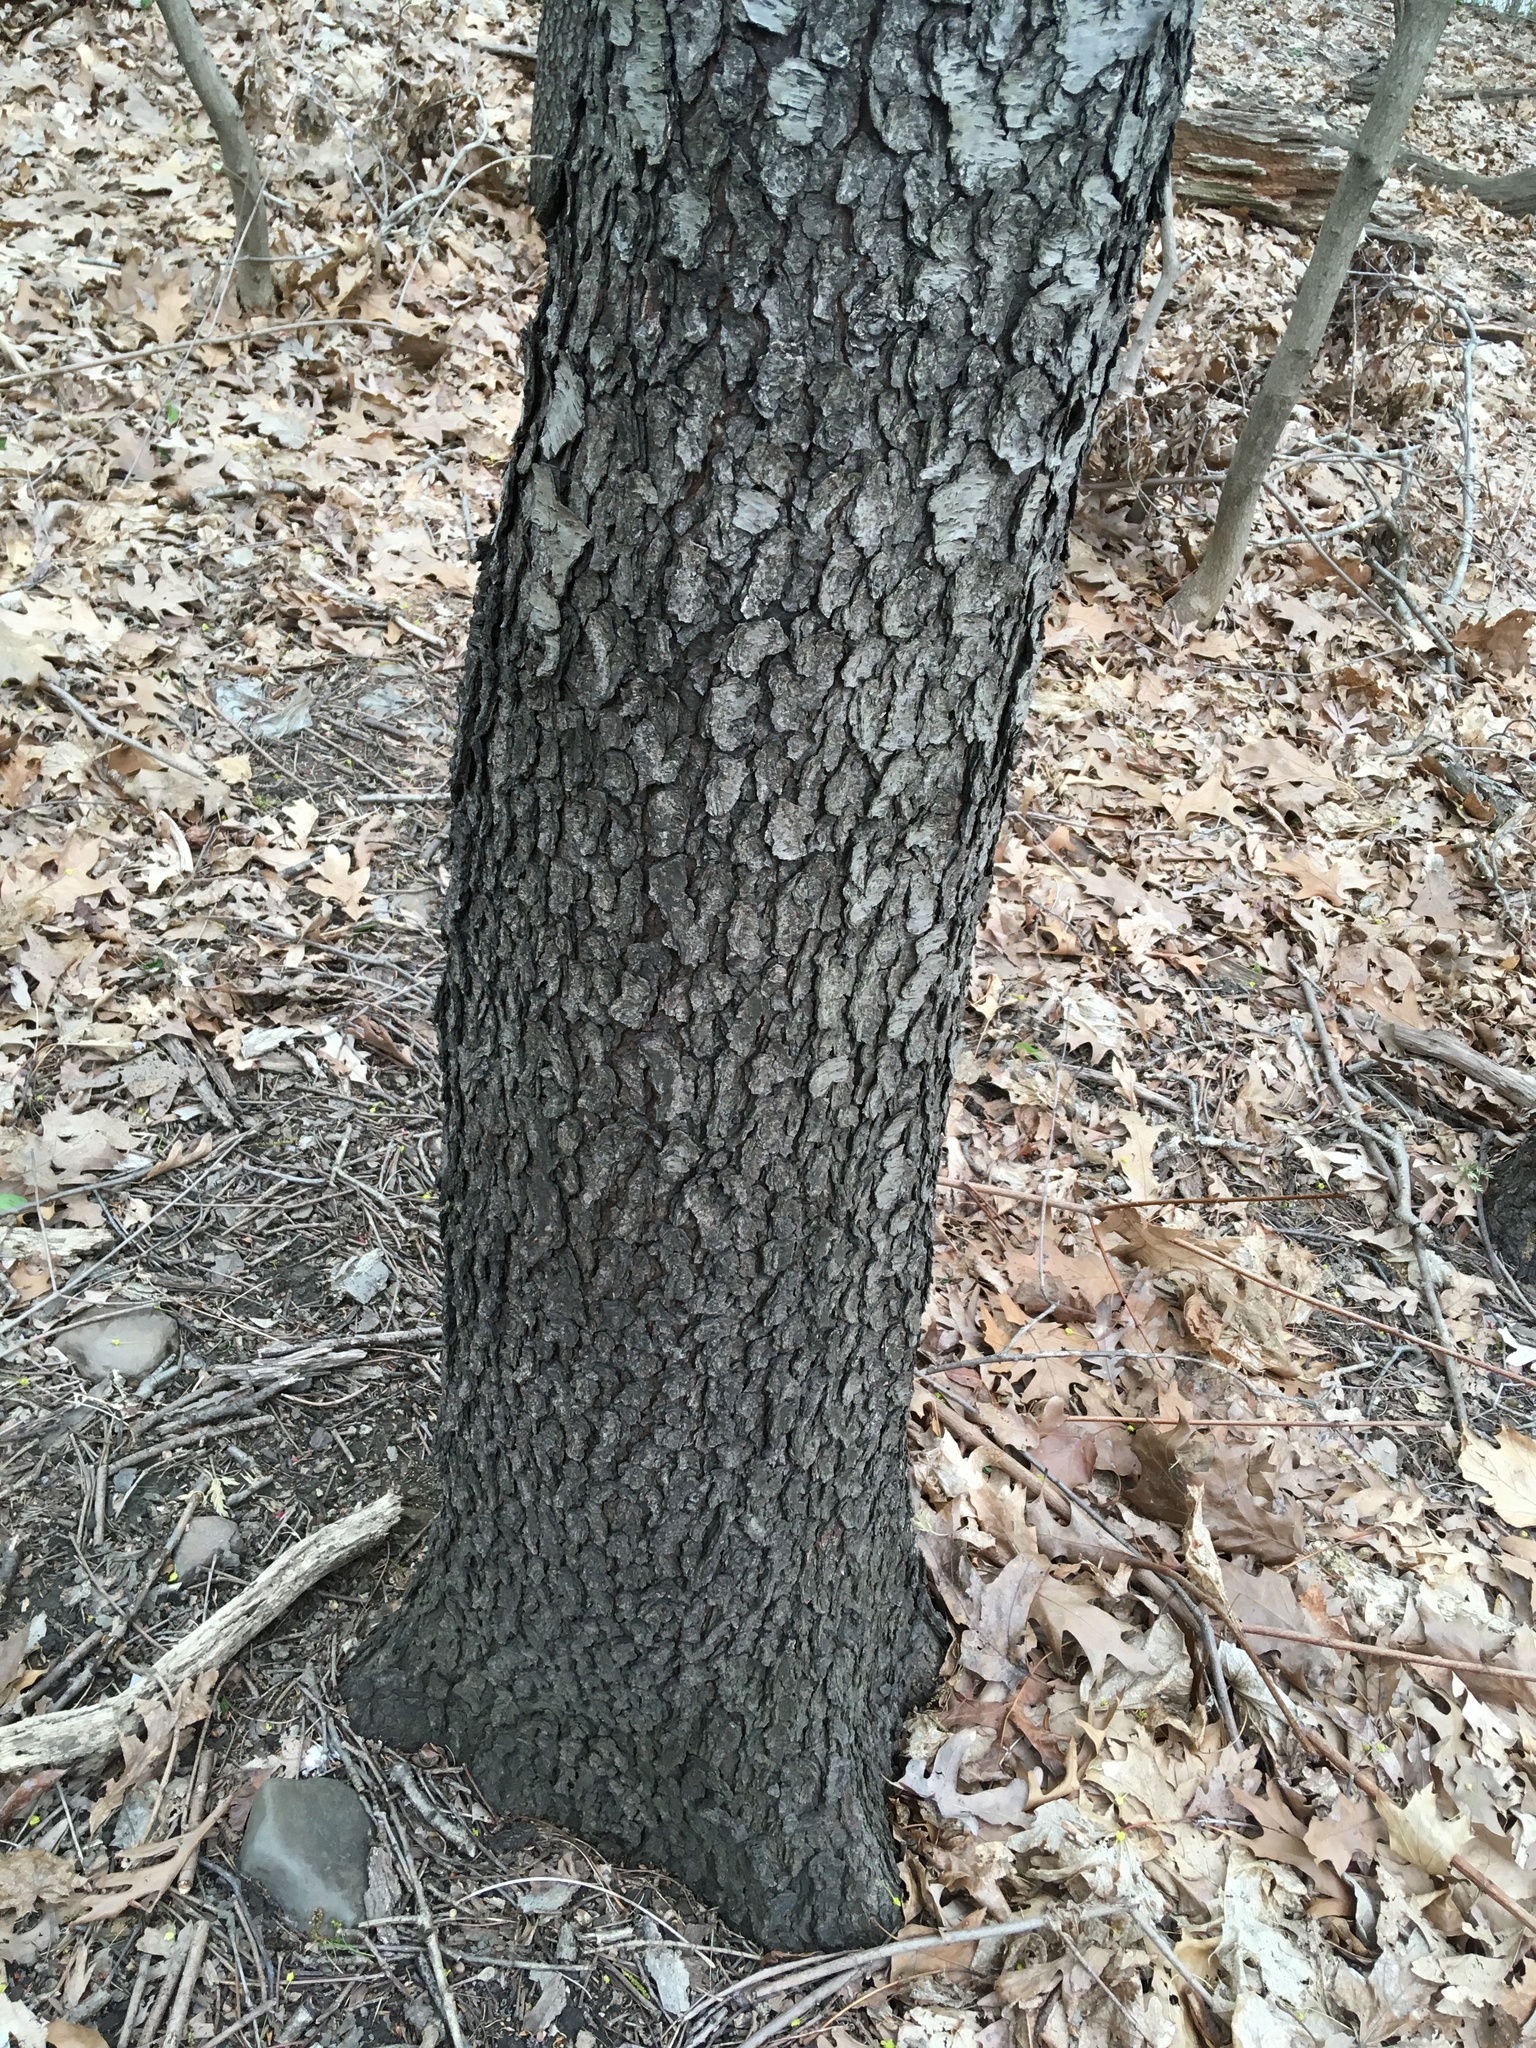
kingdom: Plantae
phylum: Tracheophyta
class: Magnoliopsida
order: Rosales
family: Rosaceae
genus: Prunus
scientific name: Prunus serotina
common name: Black cherry
